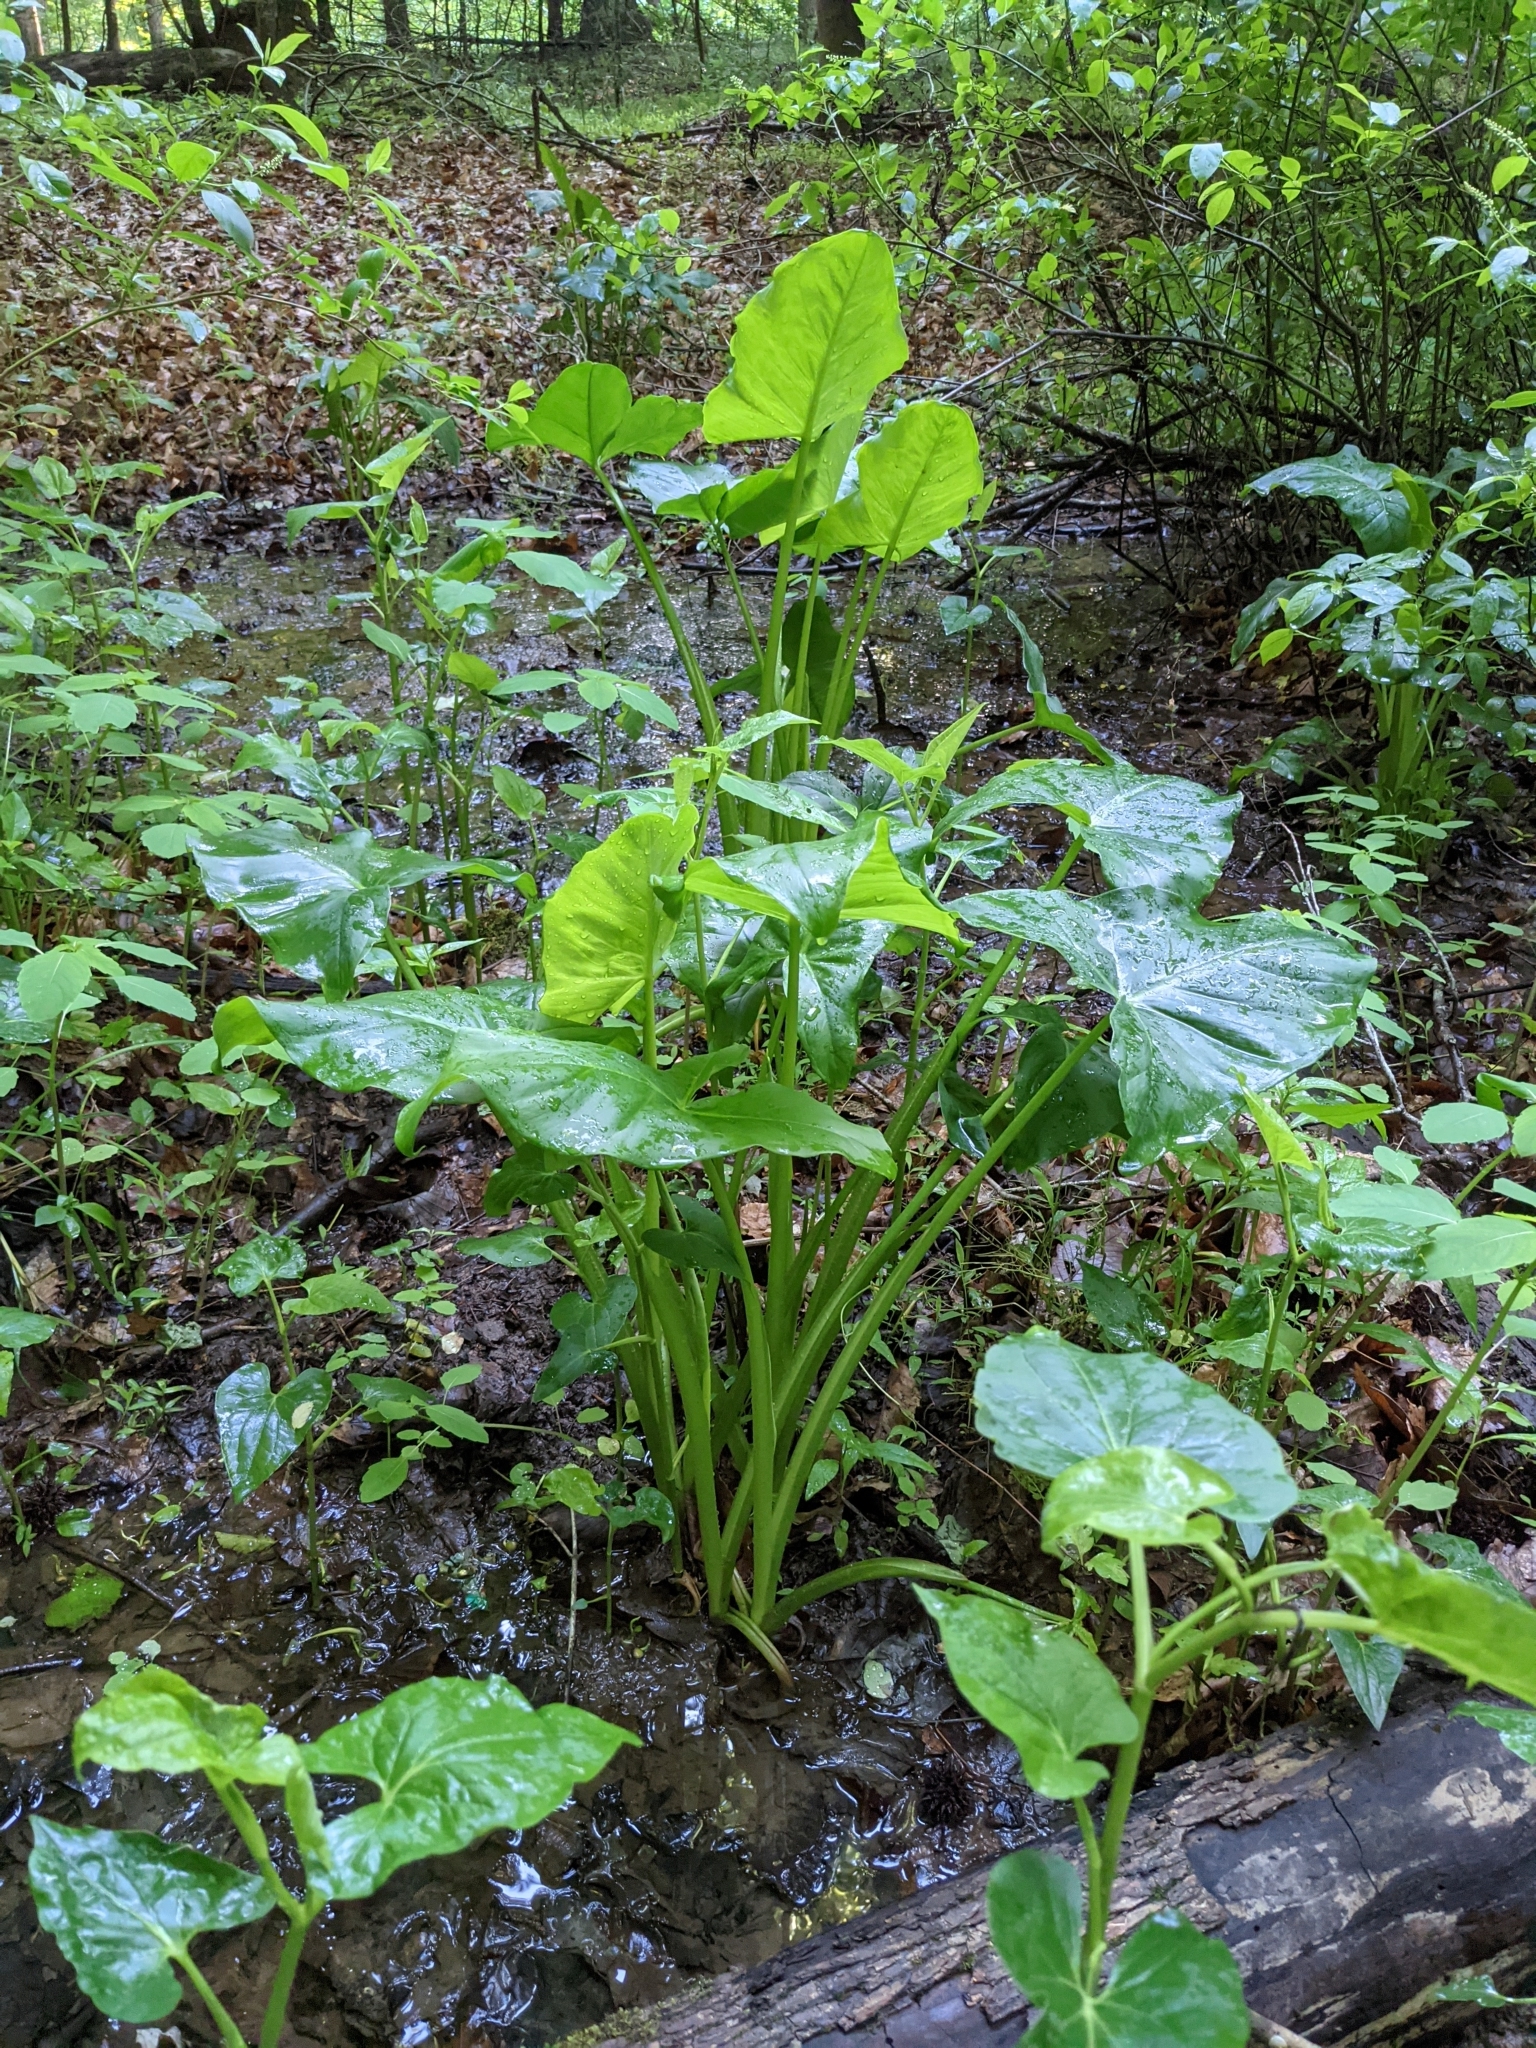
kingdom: Plantae
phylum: Tracheophyta
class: Liliopsida
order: Alismatales
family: Araceae
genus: Peltandra
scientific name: Peltandra virginica
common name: Arrow arum
